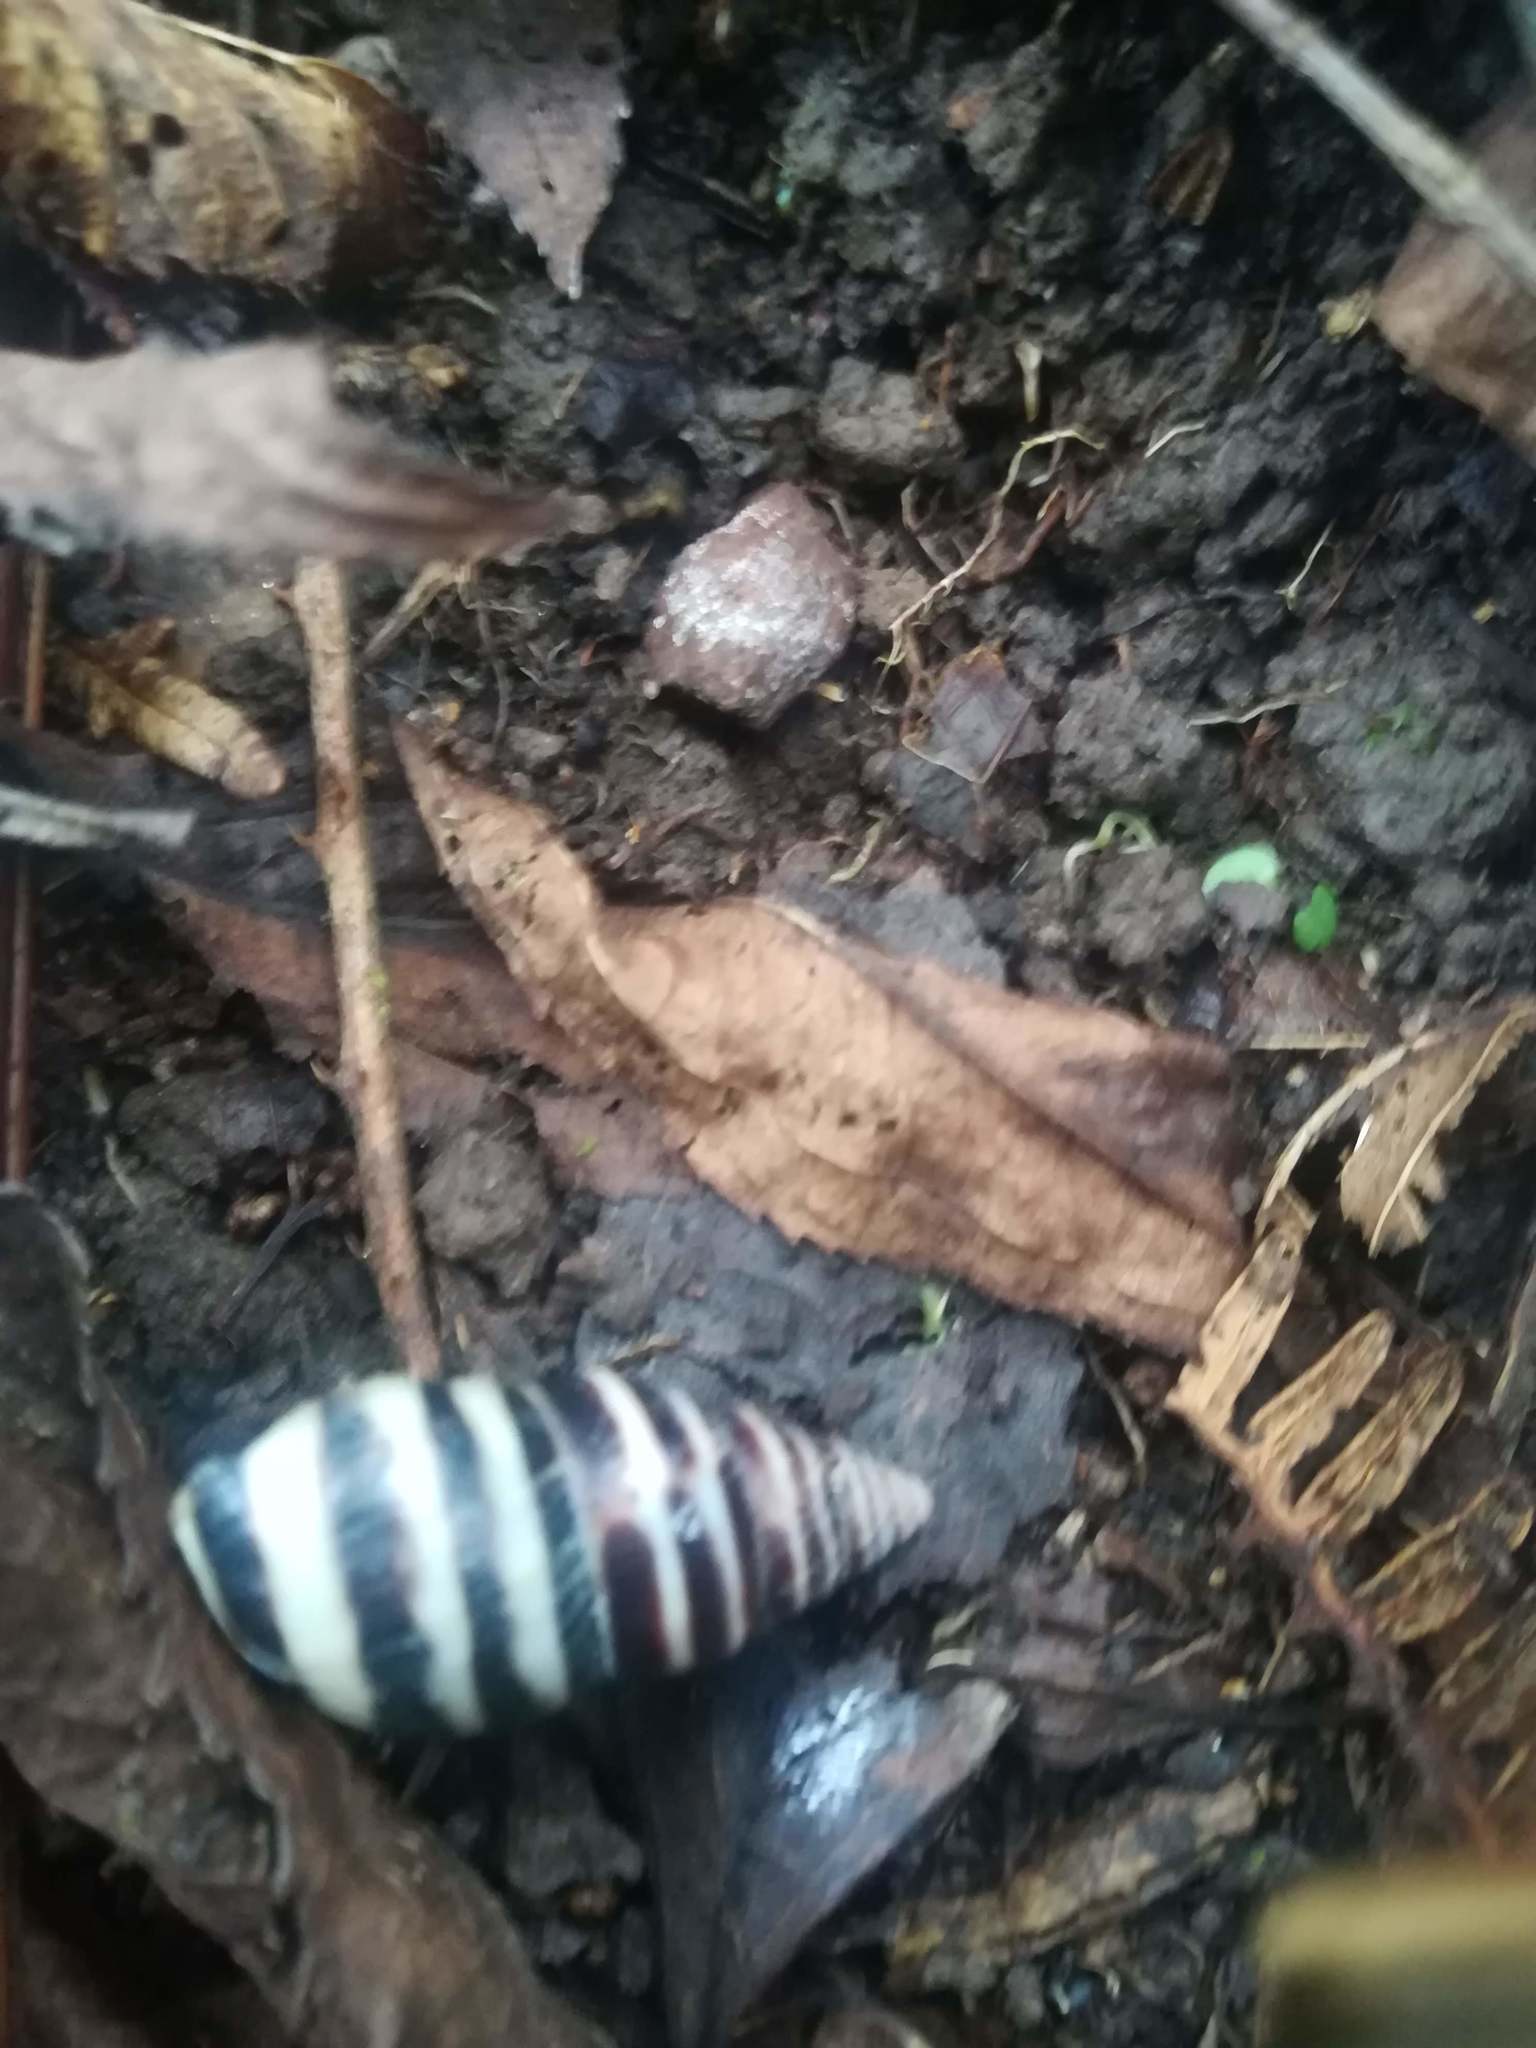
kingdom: Animalia
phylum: Mollusca
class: Gastropoda
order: Stylommatophora
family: Bulimulidae
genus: Drymaeus
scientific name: Drymaeus
